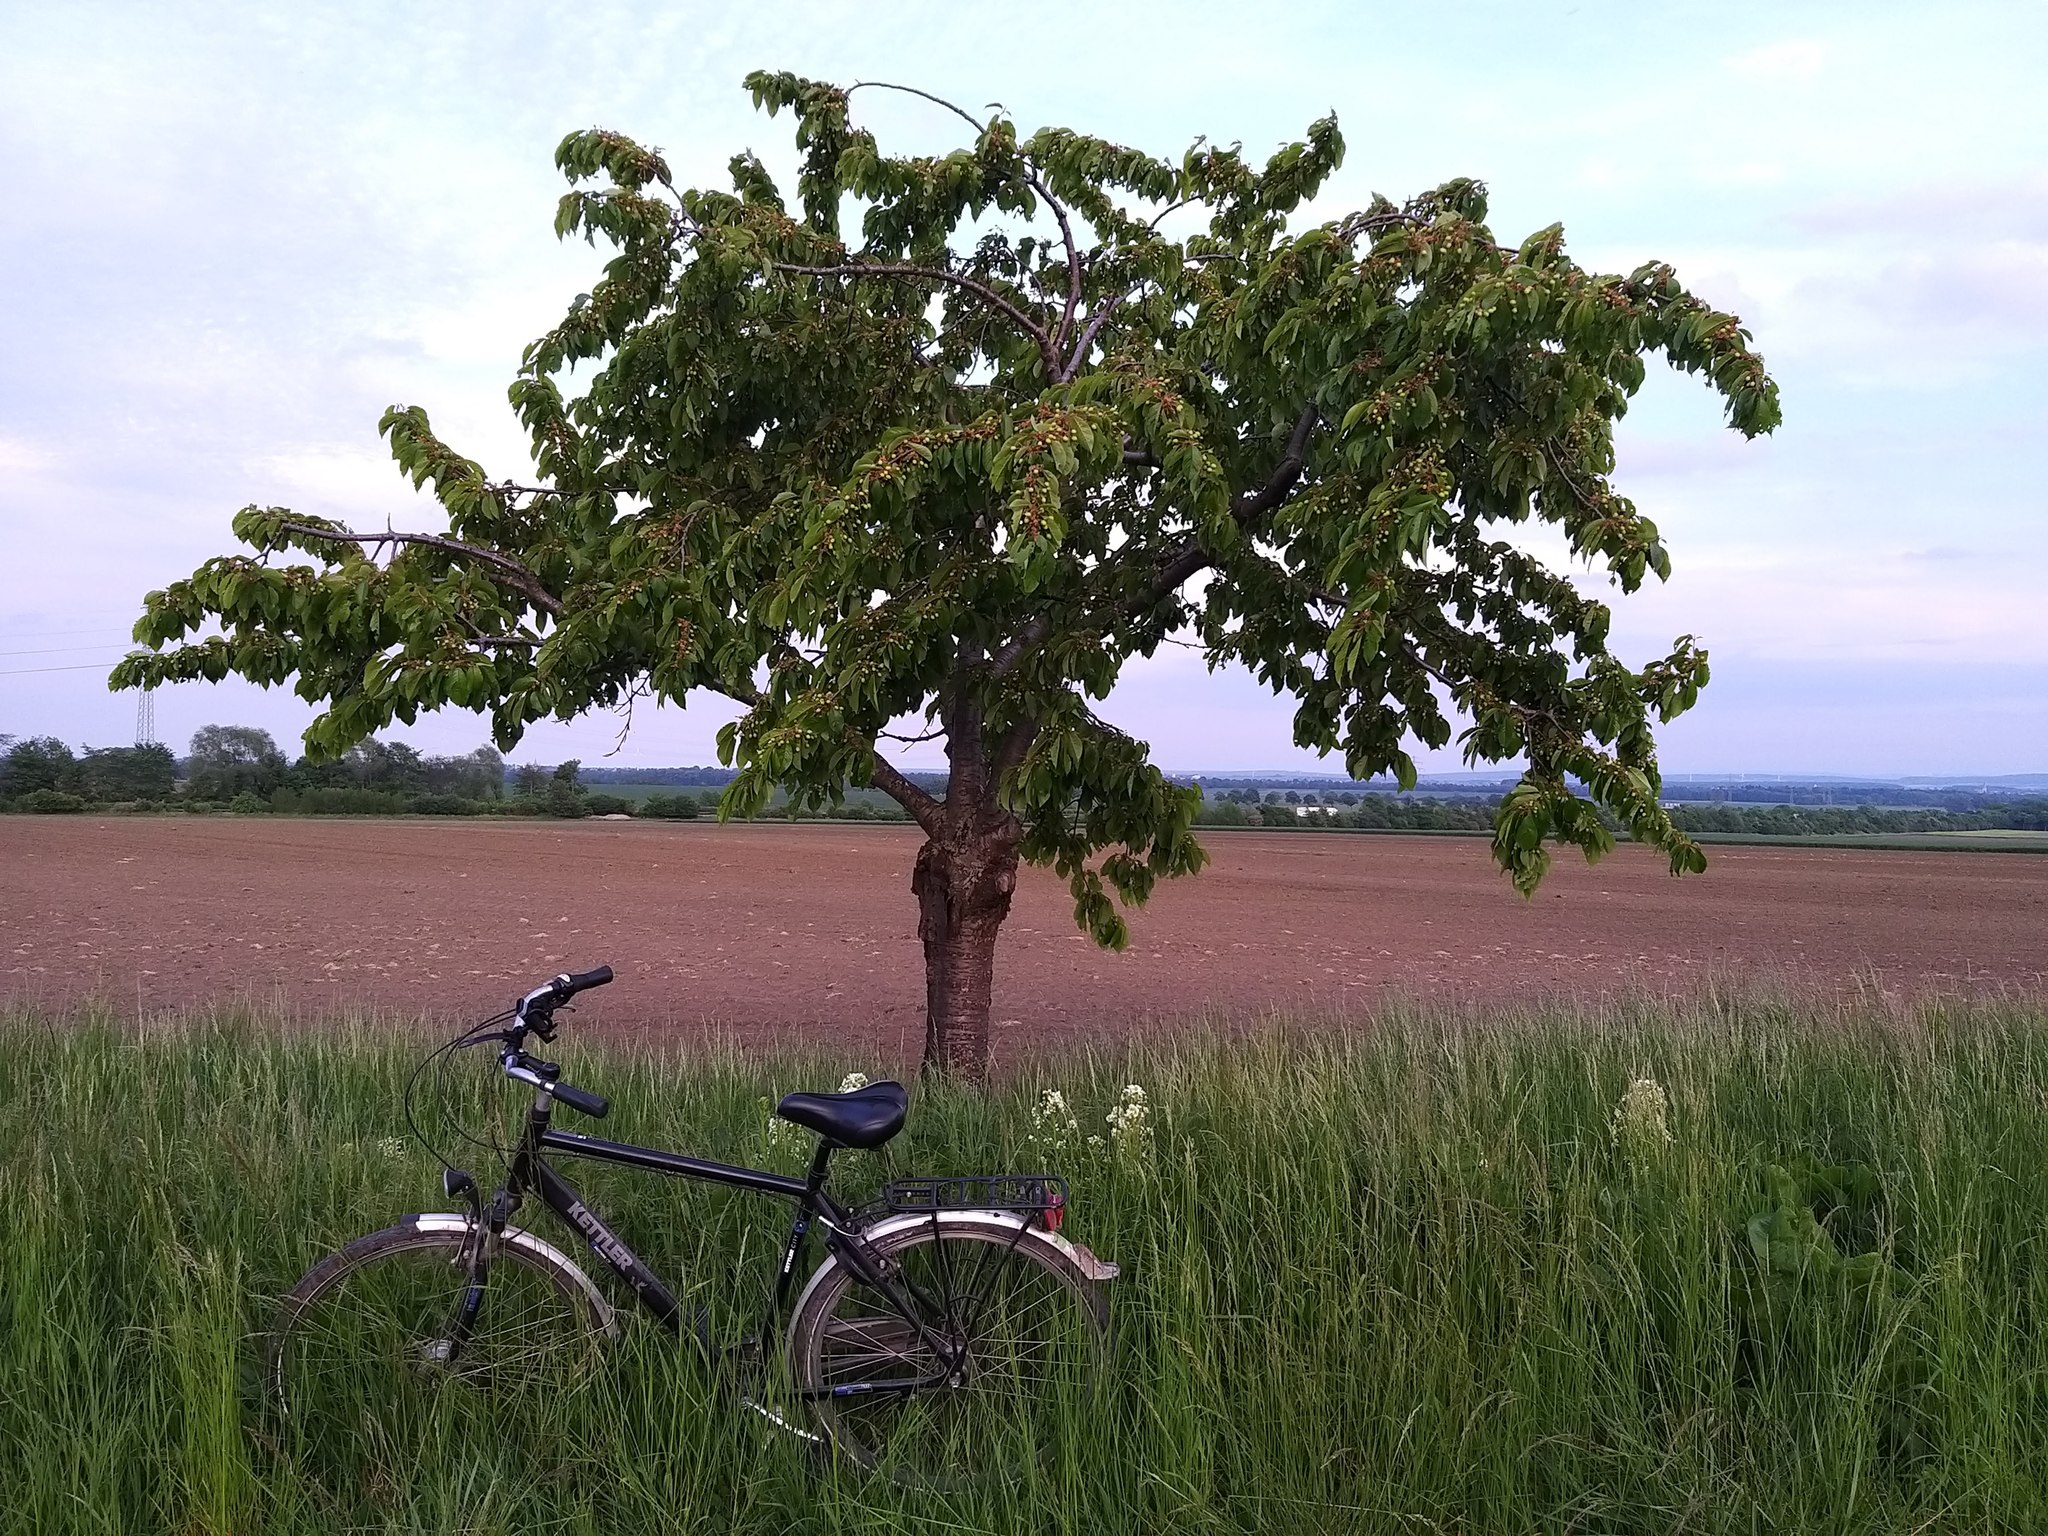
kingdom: Plantae
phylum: Tracheophyta
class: Magnoliopsida
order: Rosales
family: Rosaceae
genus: Prunus
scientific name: Prunus avium
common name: Sweet cherry
